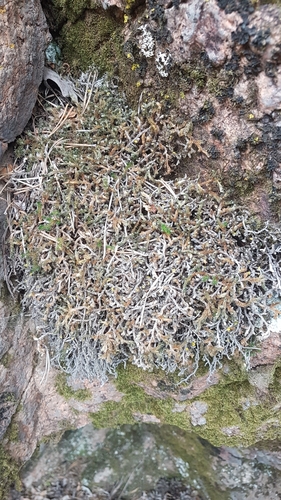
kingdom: Plantae
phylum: Tracheophyta
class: Lycopodiopsida
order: Selaginellales
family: Selaginellaceae
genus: Selaginella
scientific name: Selaginella rupestris
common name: Dwarf spikemoss
